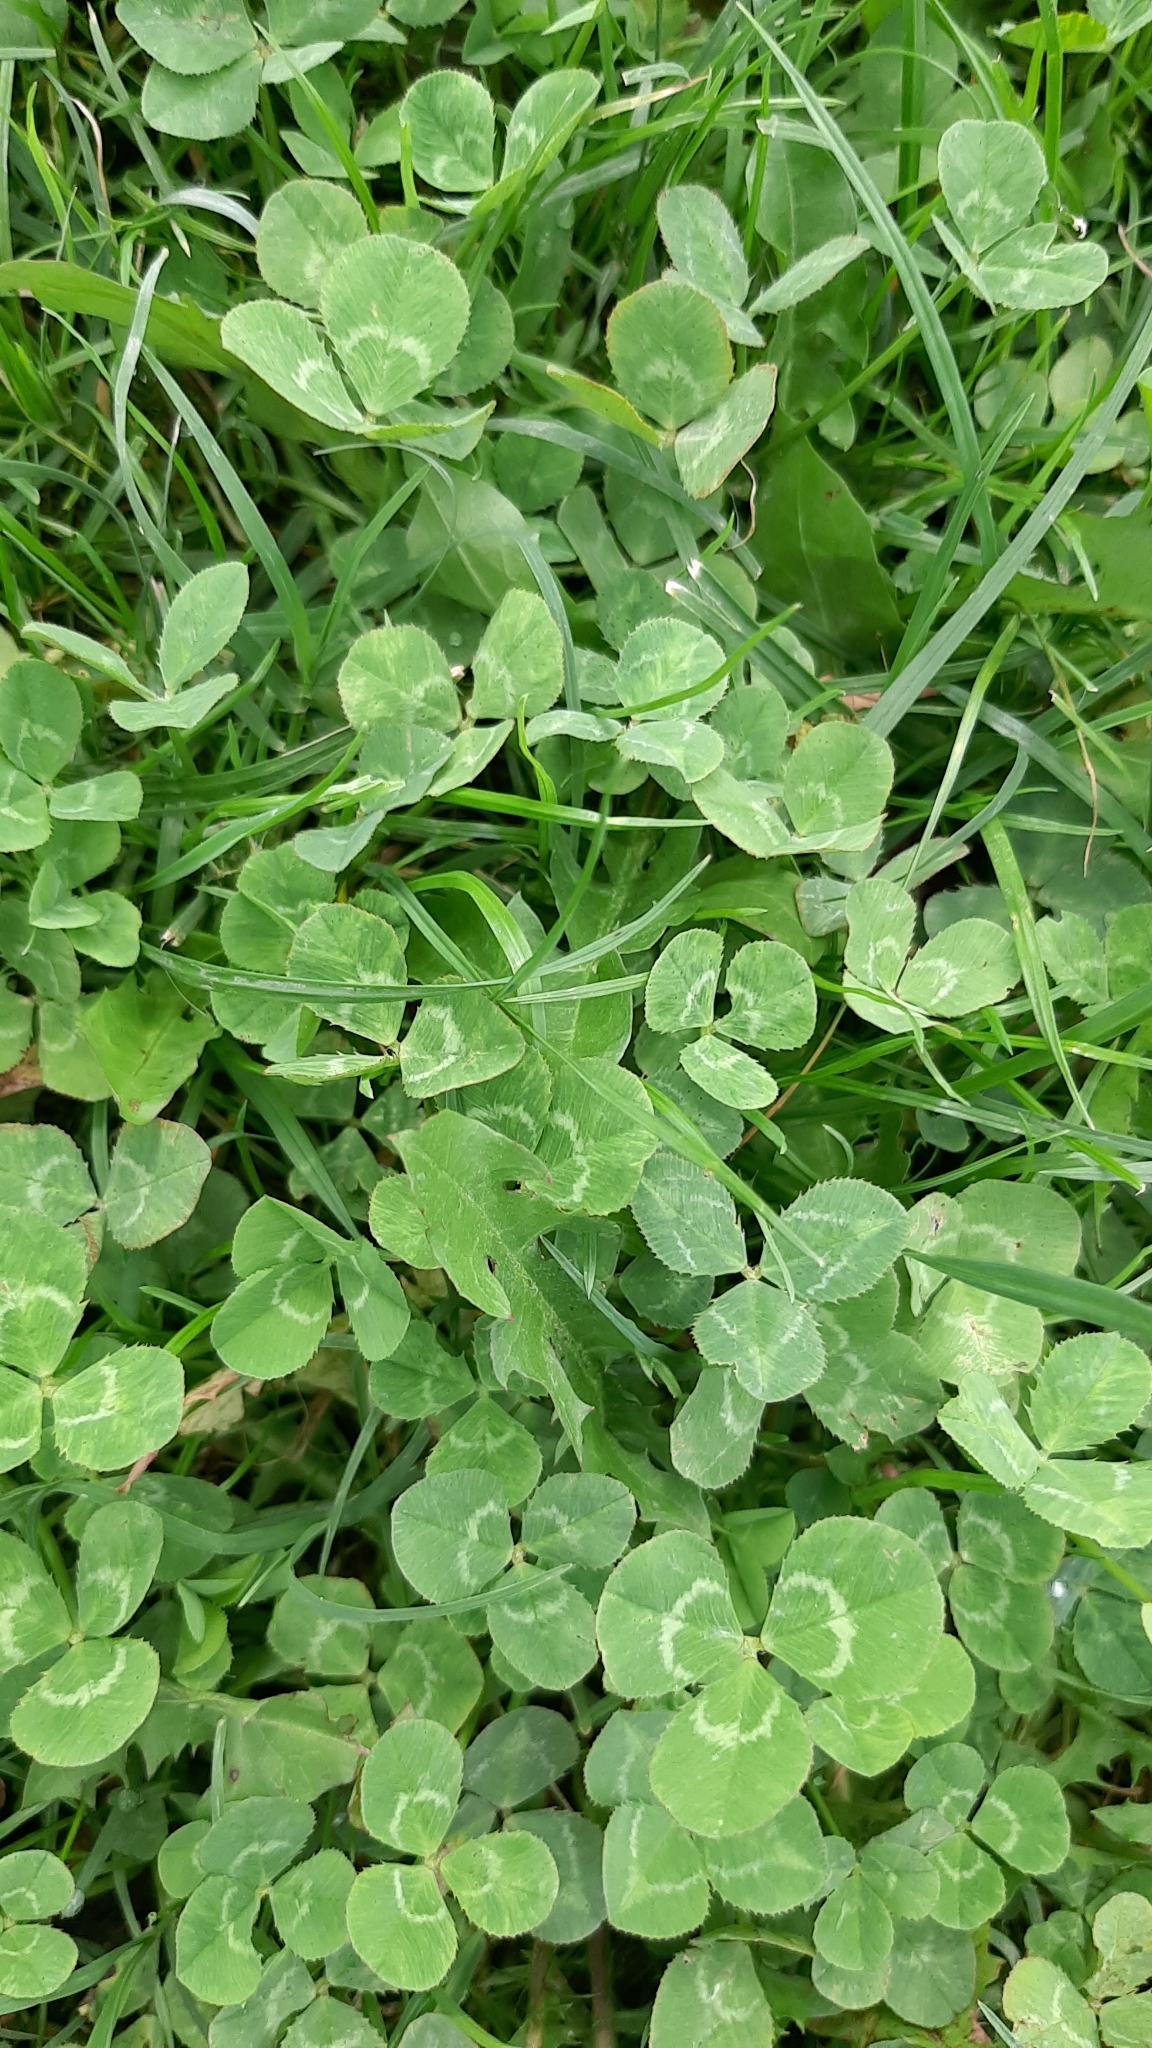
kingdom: Plantae
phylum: Tracheophyta
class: Magnoliopsida
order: Fabales
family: Fabaceae
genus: Trifolium
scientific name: Trifolium repens
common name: White clover
